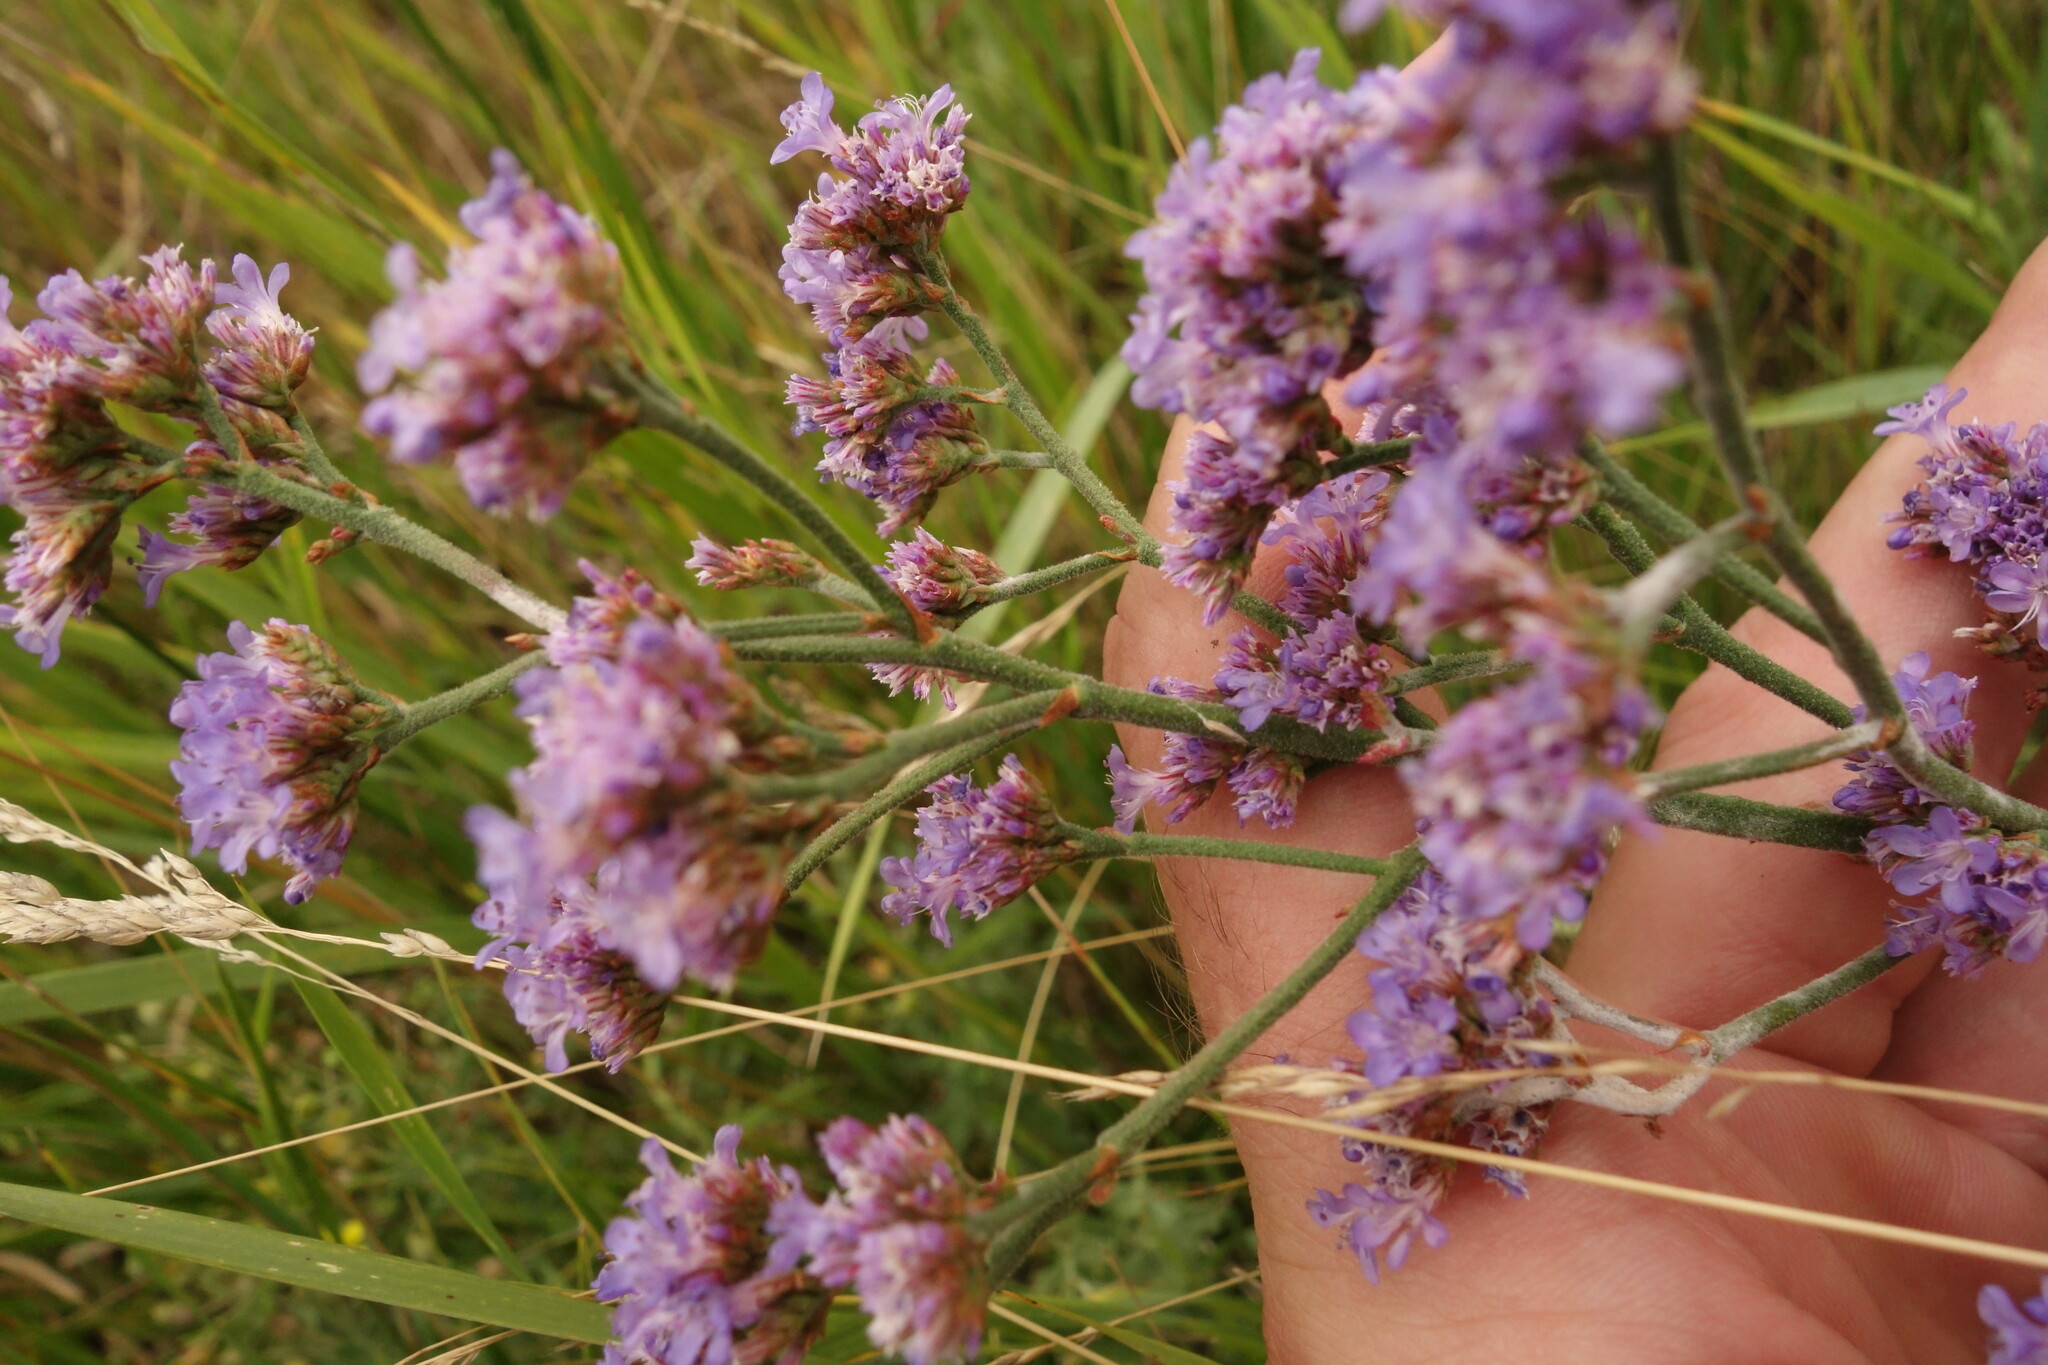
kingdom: Plantae
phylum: Tracheophyta
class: Magnoliopsida
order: Caryophyllales
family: Plumbaginaceae
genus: Limonium
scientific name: Limonium tomentellum
